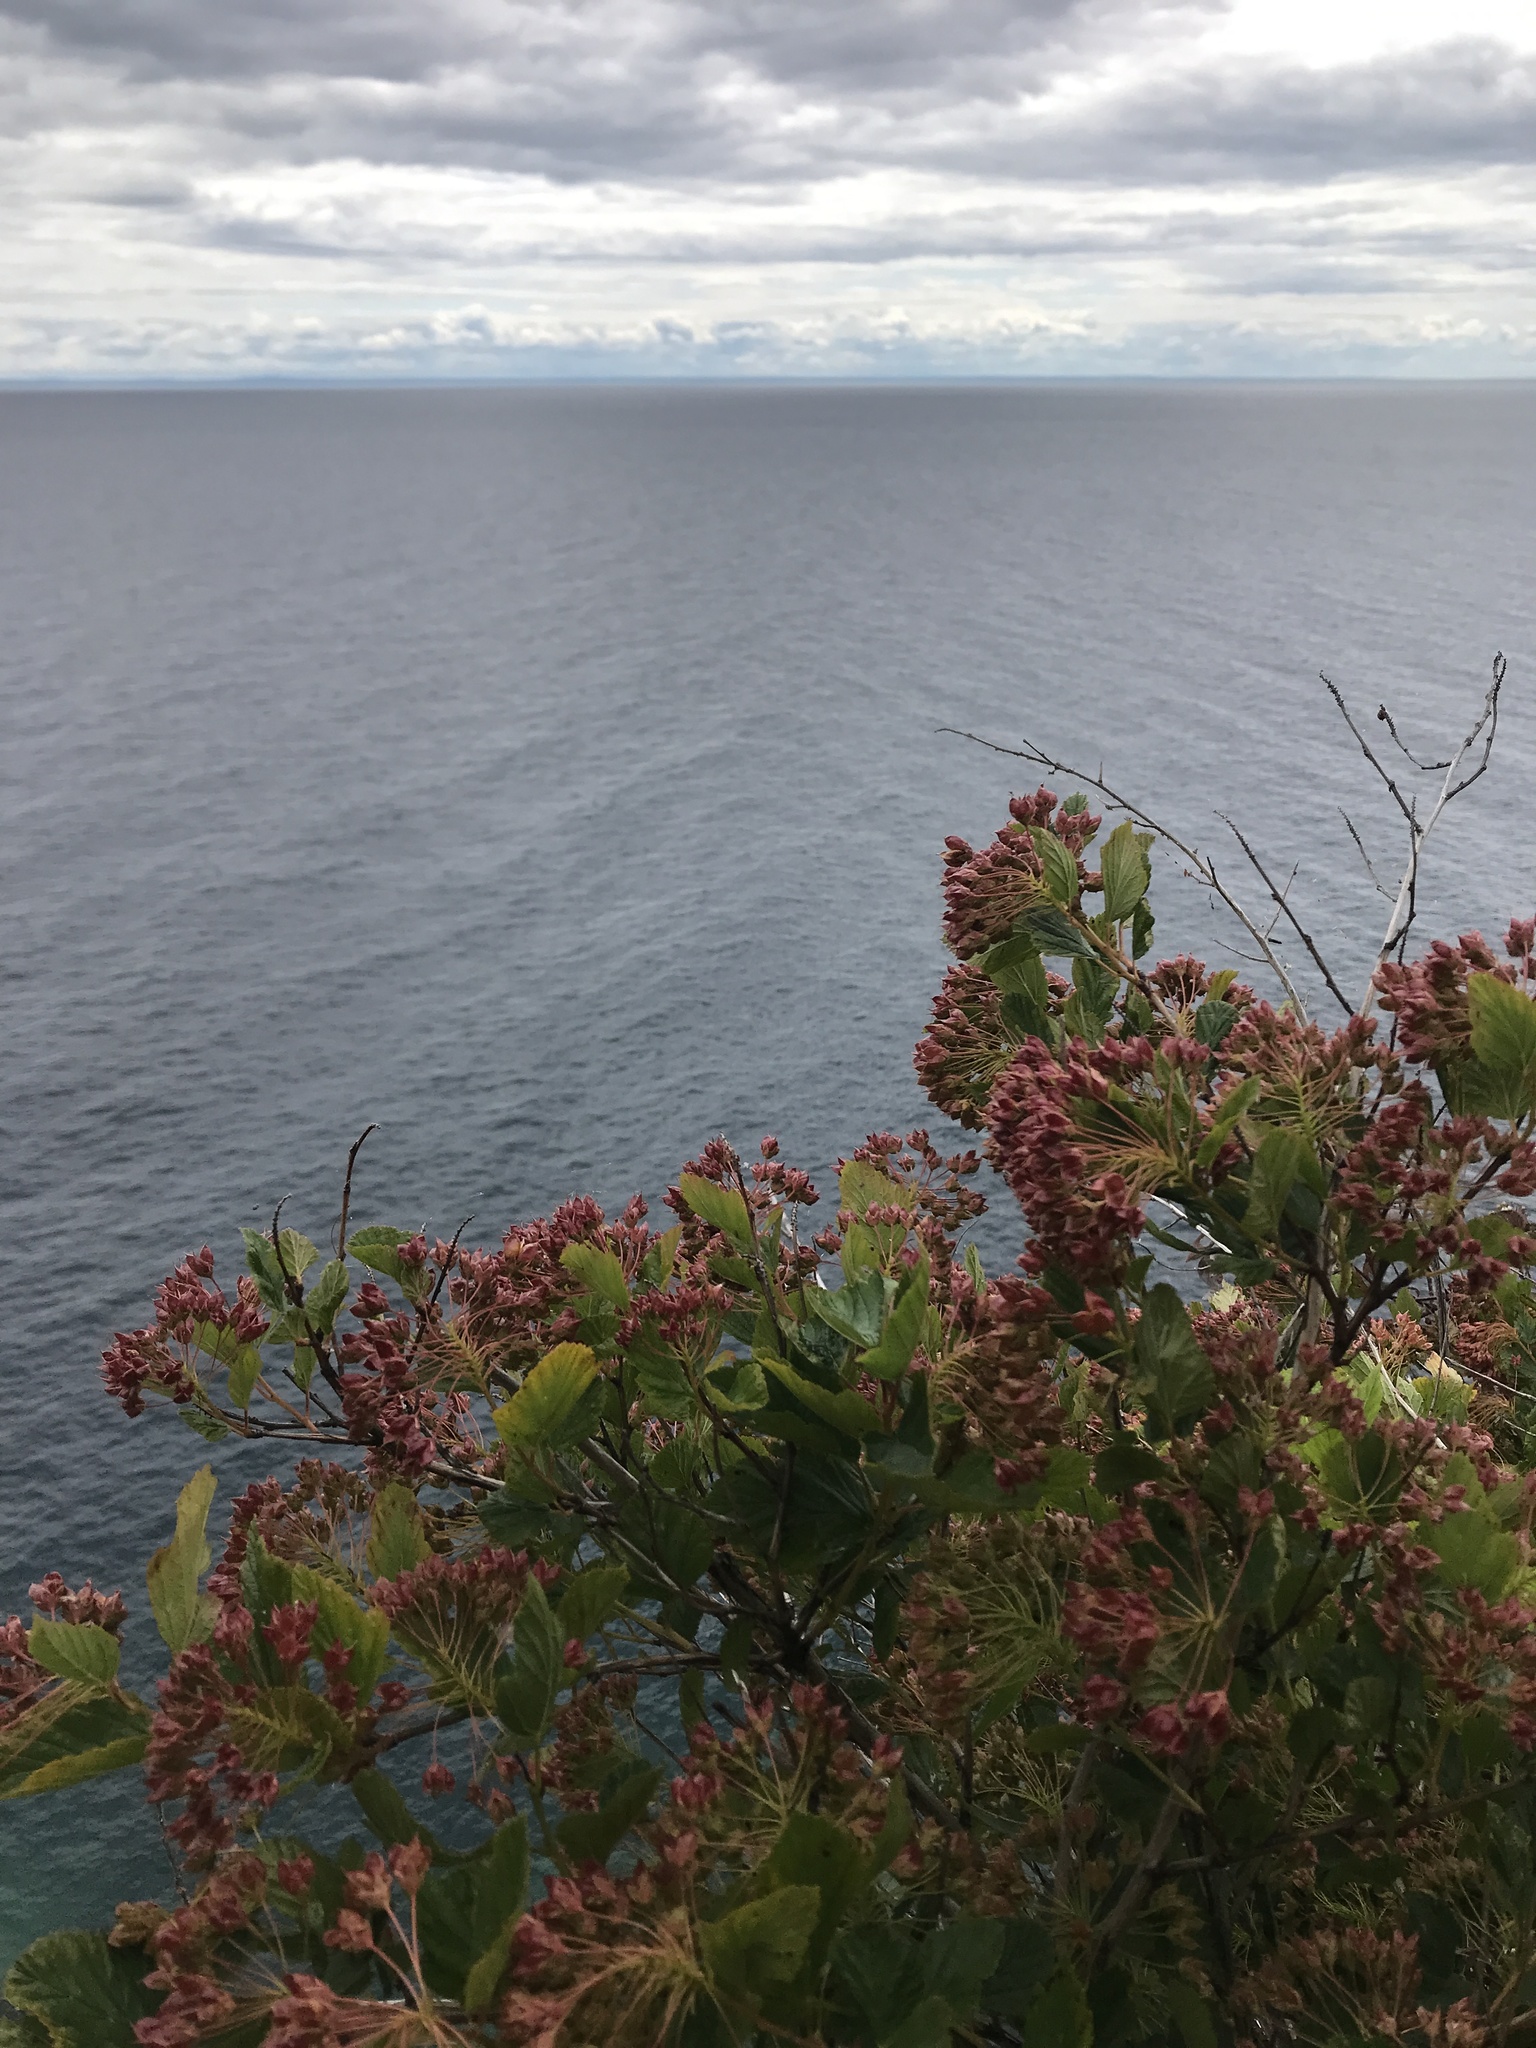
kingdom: Plantae
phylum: Tracheophyta
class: Magnoliopsida
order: Rosales
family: Rosaceae
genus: Physocarpus
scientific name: Physocarpus opulifolius
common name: Ninebark
